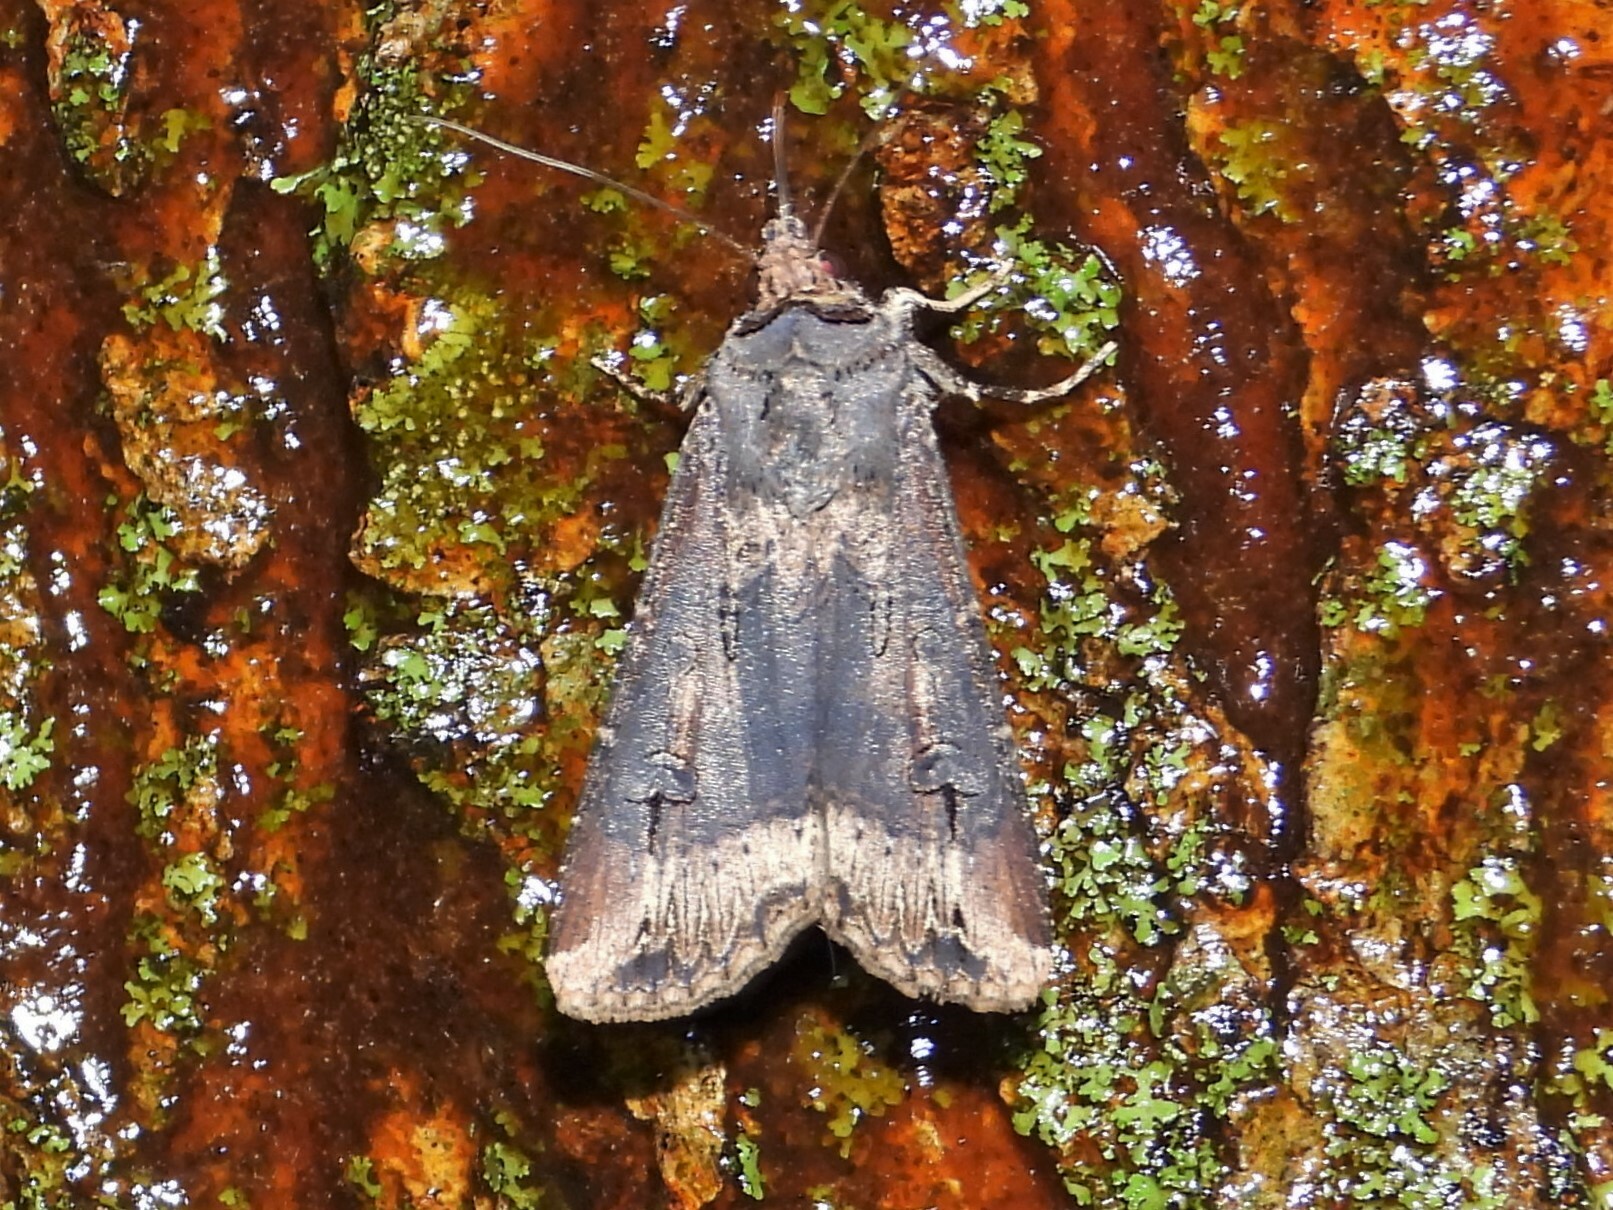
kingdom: Animalia
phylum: Arthropoda
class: Insecta
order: Lepidoptera
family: Noctuidae
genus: Agrotis
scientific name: Agrotis ipsilon
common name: Dark sword-grass
